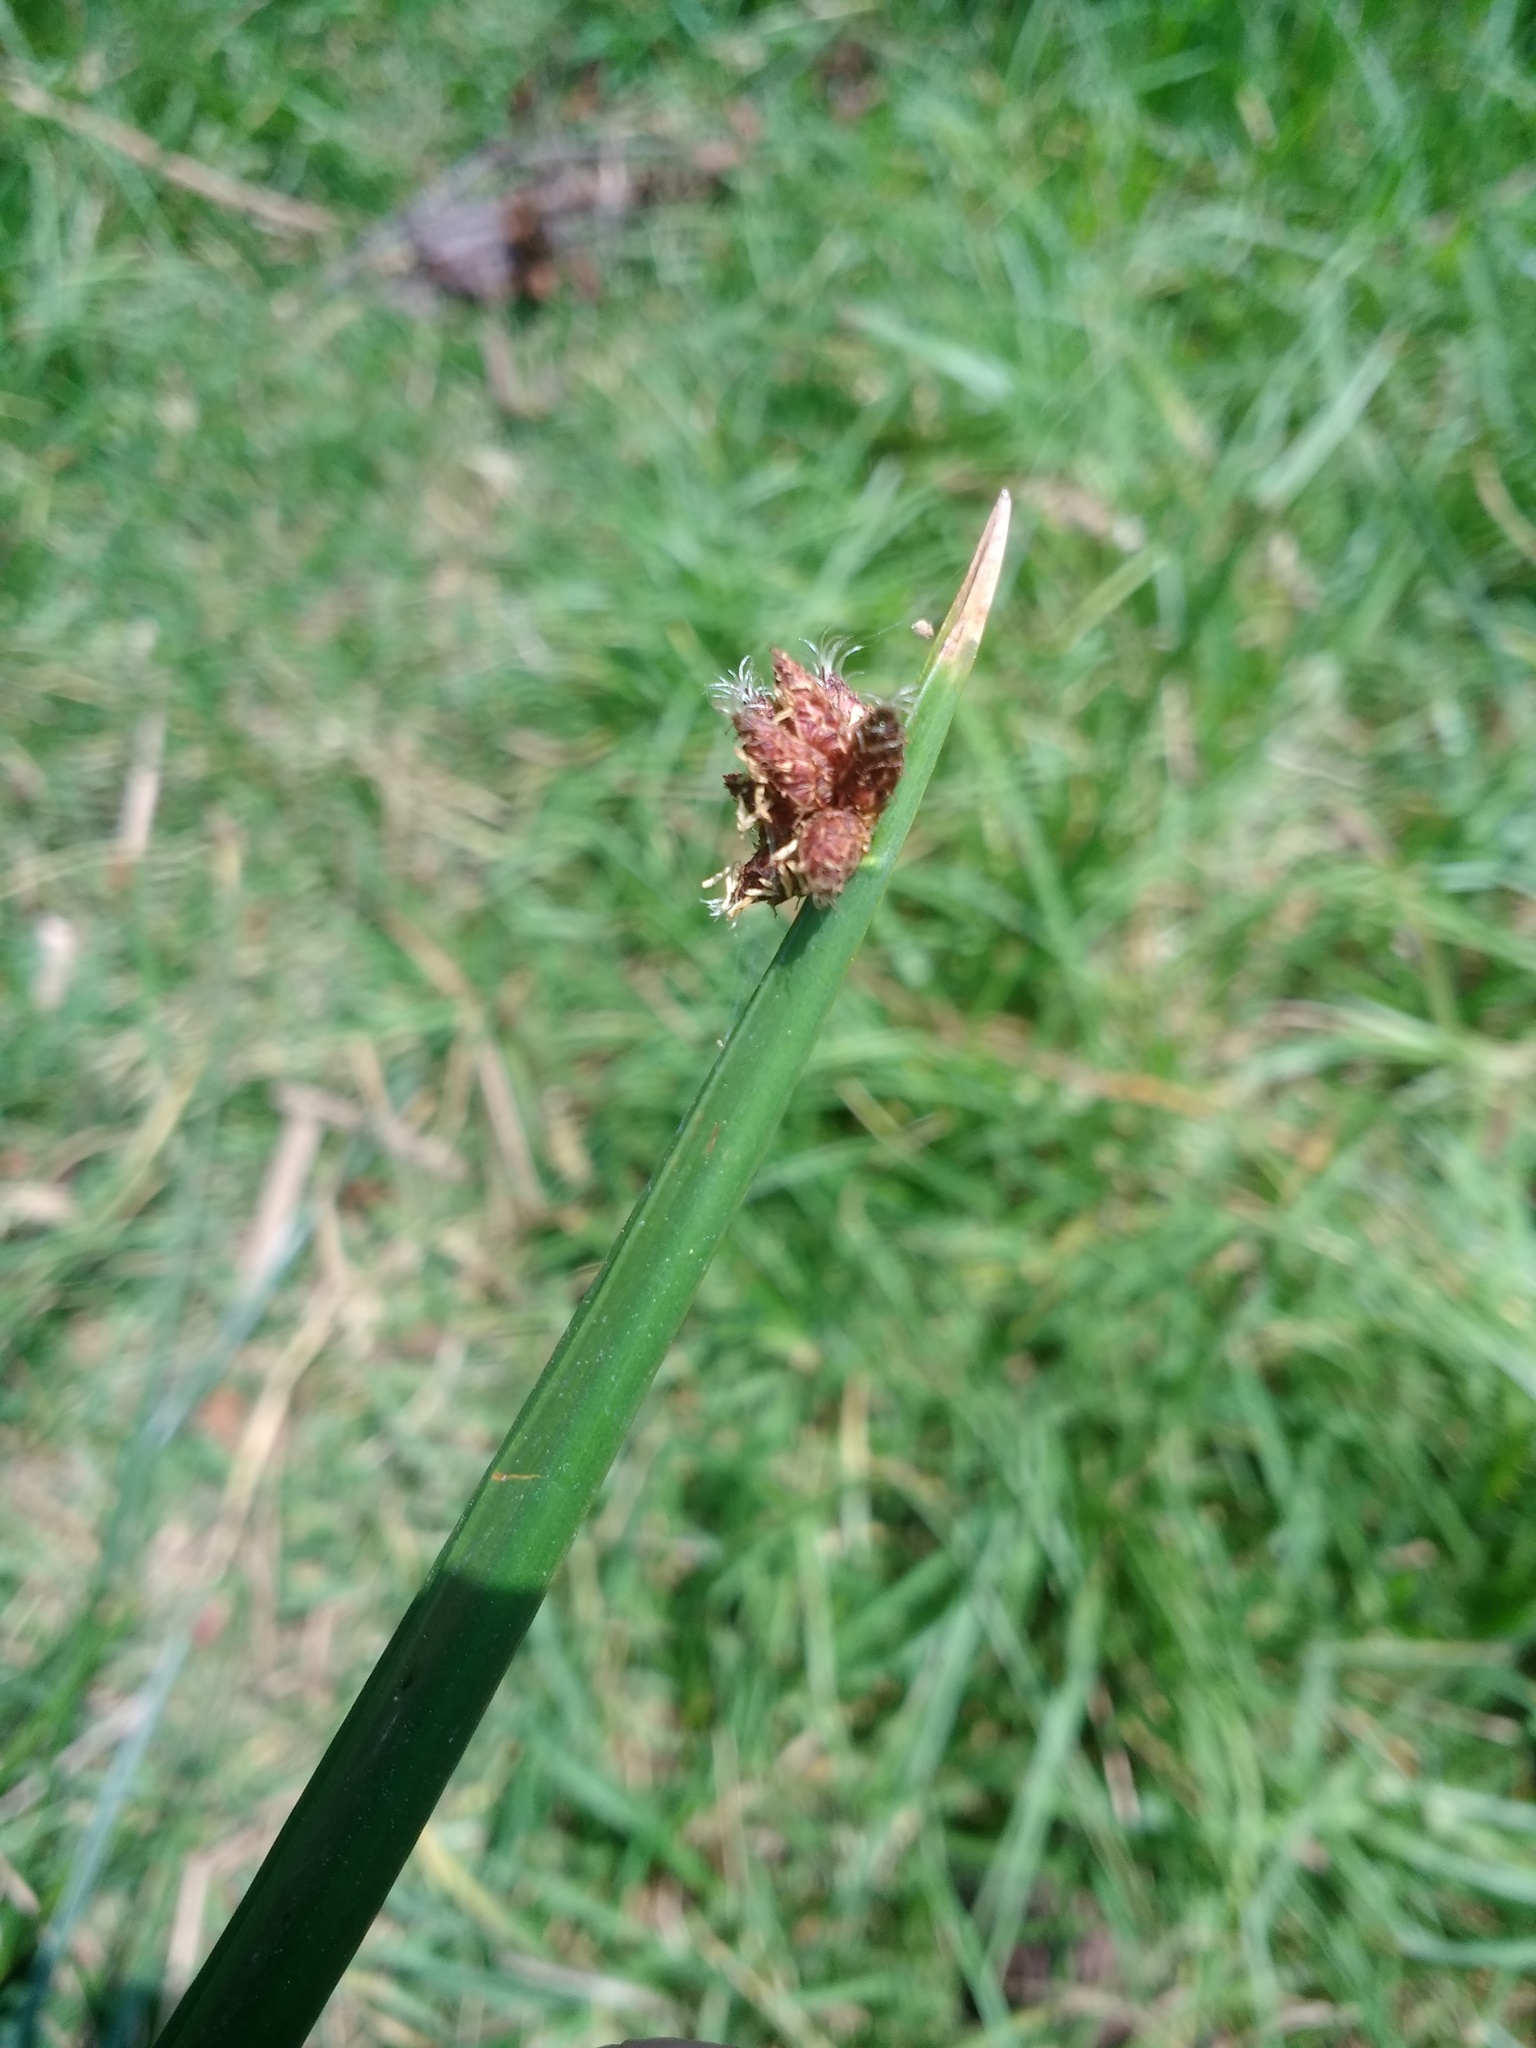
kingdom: Plantae
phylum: Tracheophyta
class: Liliopsida
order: Poales
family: Cyperaceae
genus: Schoenoplectus
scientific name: Schoenoplectus americanus
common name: American three-square bulrush
